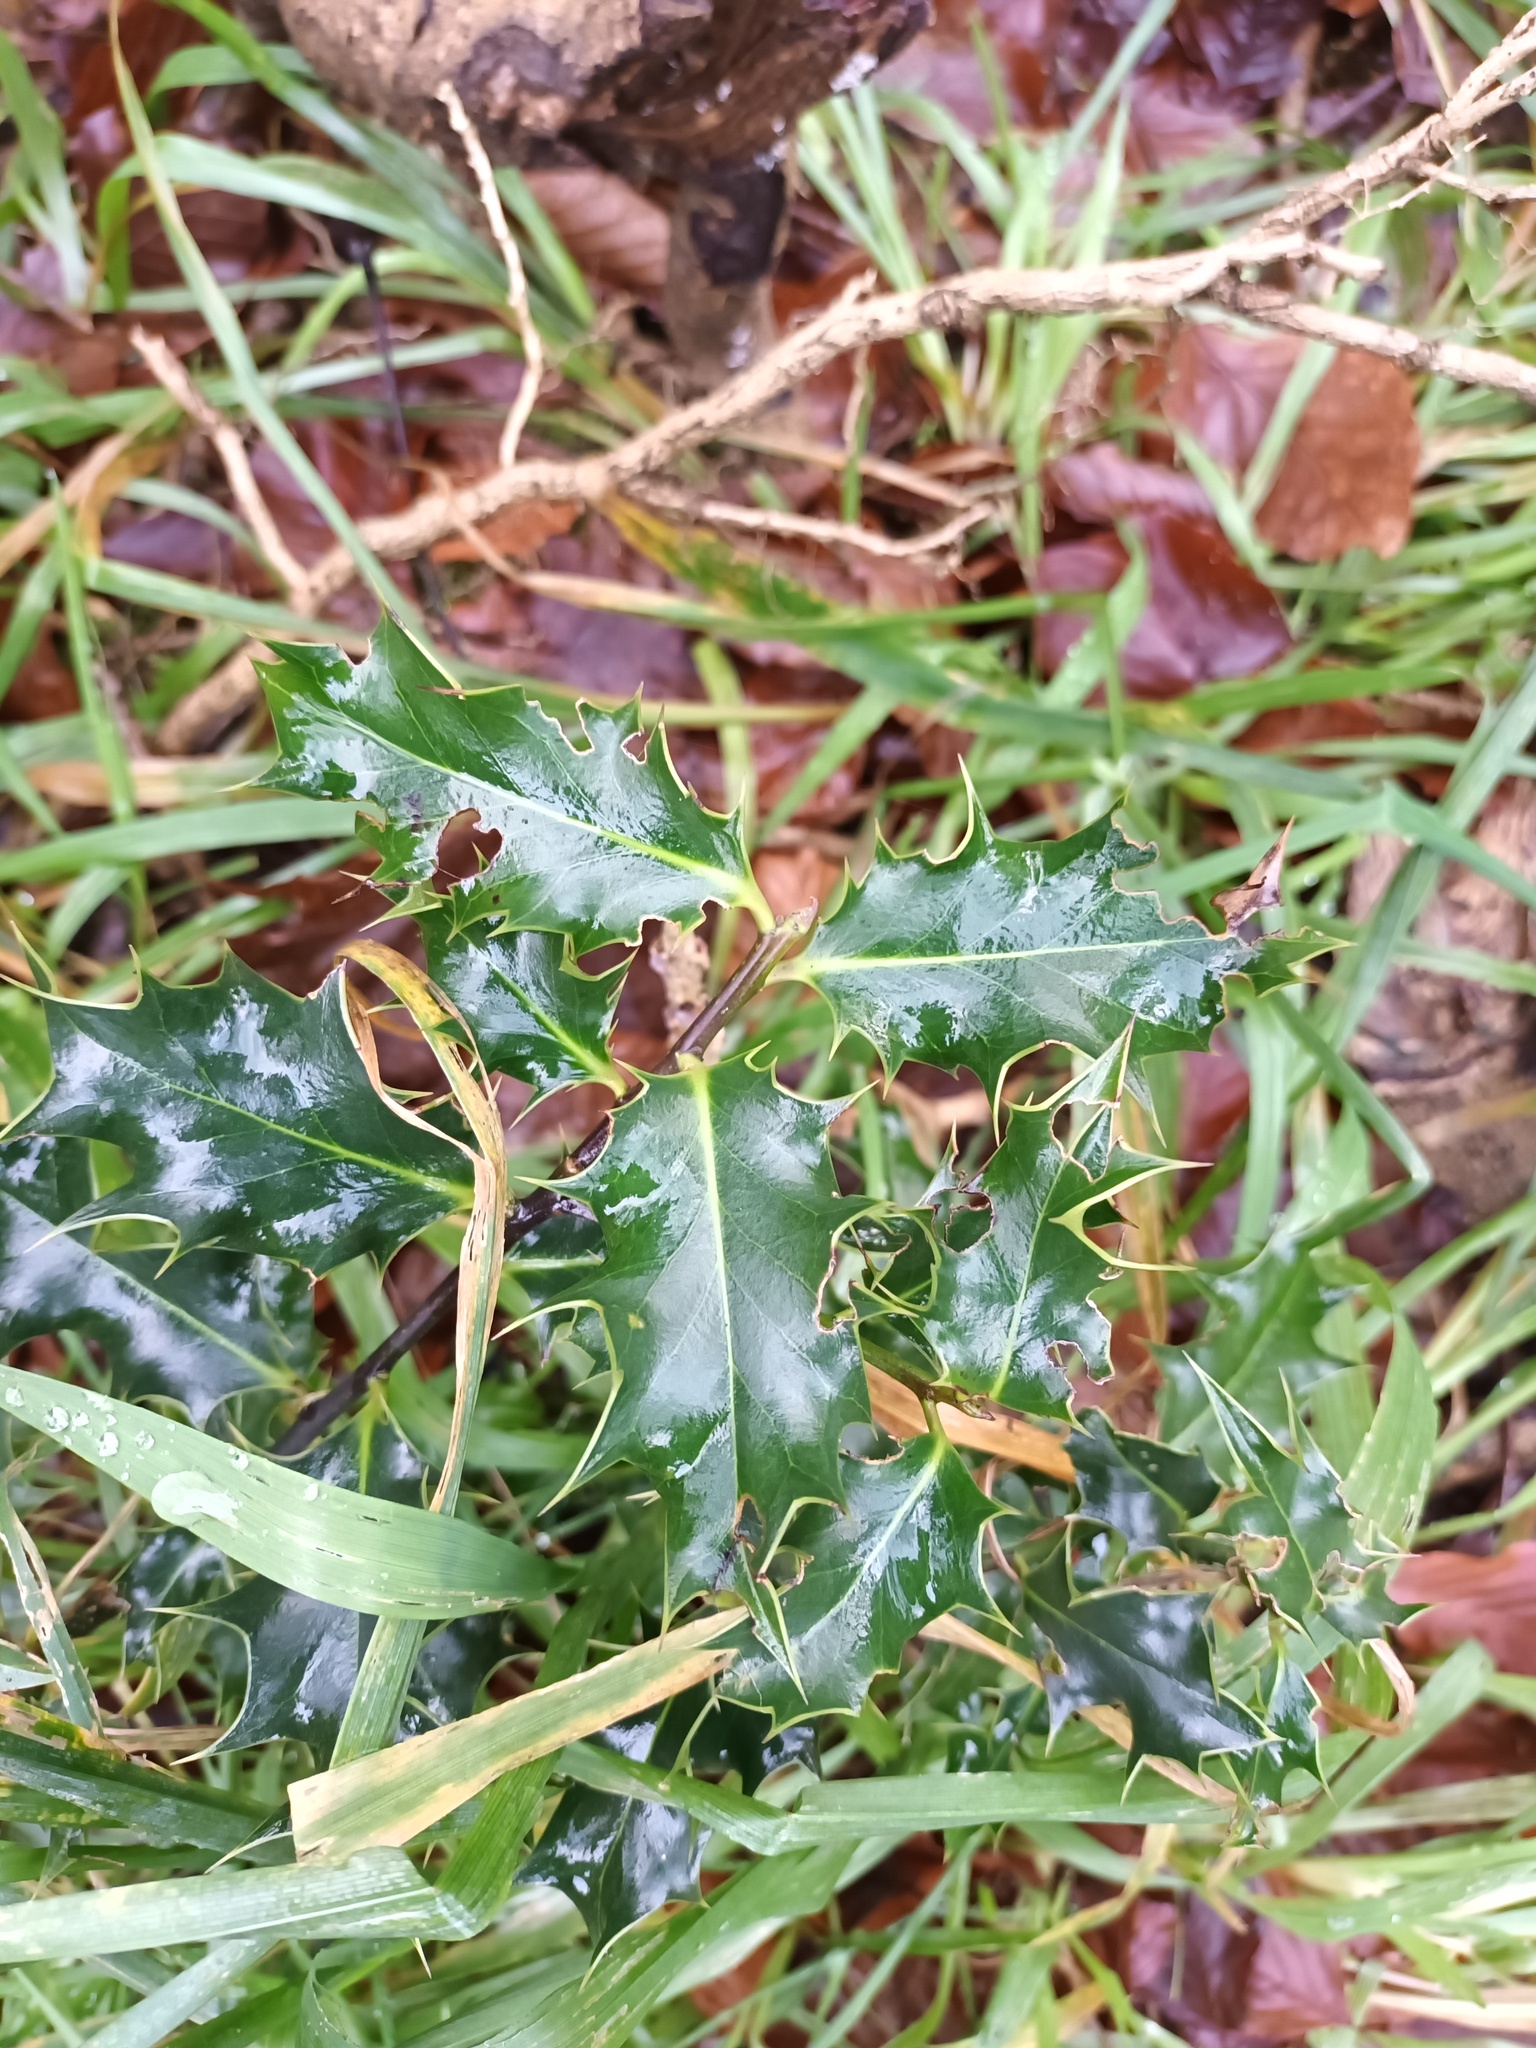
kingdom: Plantae
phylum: Tracheophyta
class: Magnoliopsida
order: Aquifoliales
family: Aquifoliaceae
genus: Ilex
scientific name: Ilex aquifolium
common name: English holly
